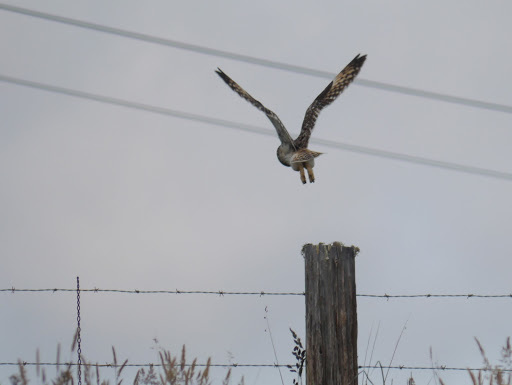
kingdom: Animalia
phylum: Chordata
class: Aves
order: Strigiformes
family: Strigidae
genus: Asio
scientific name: Asio flammeus
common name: Short-eared owl
